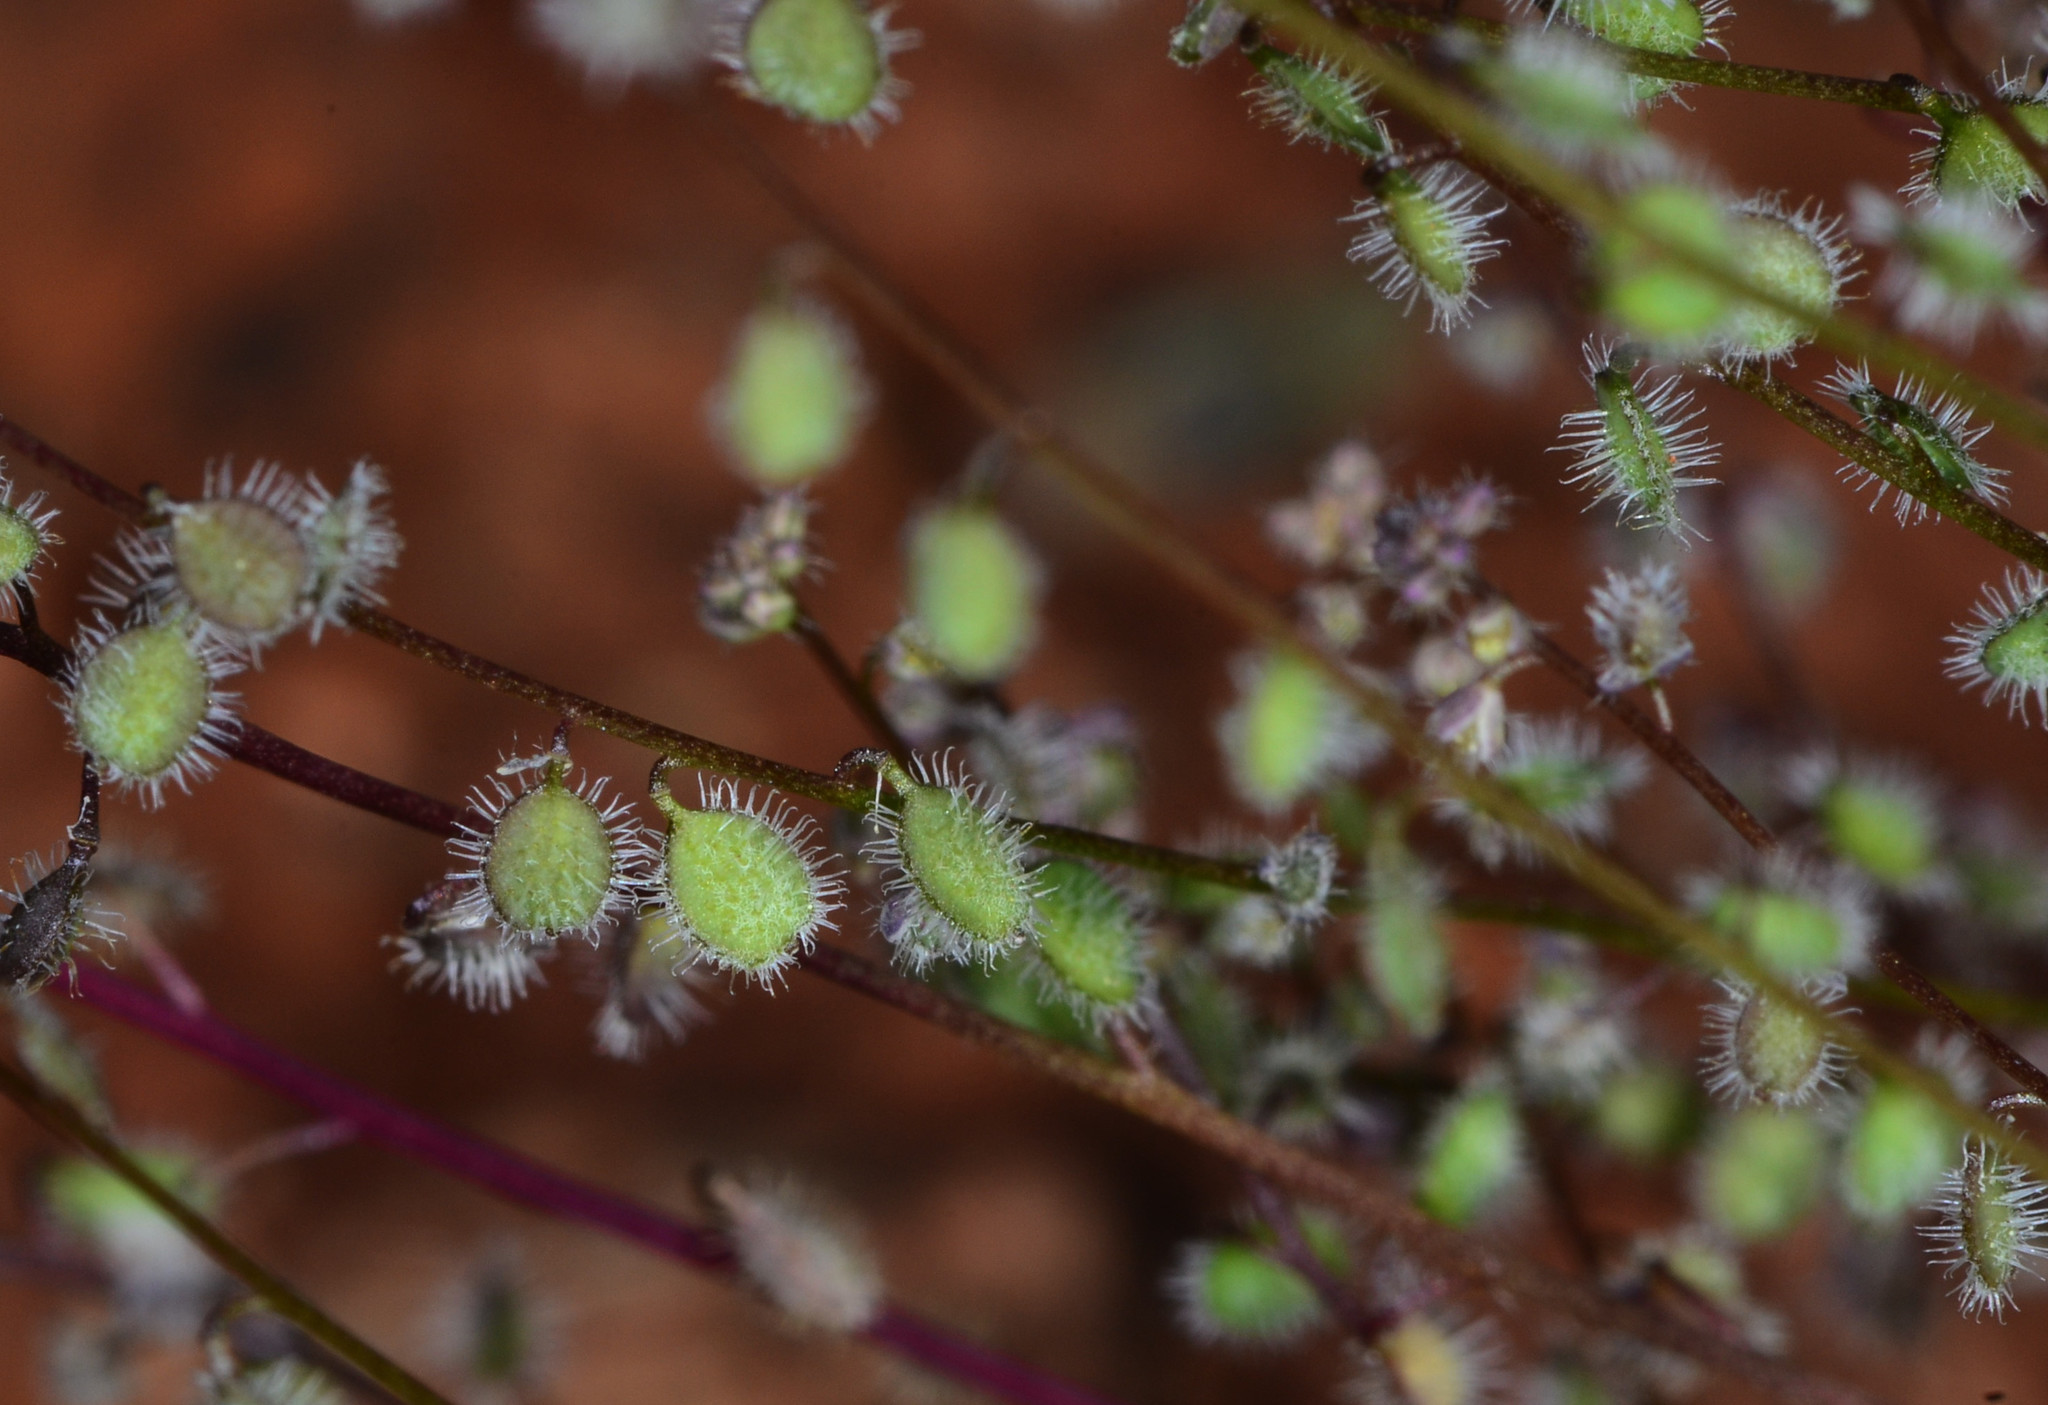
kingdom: Plantae
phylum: Tracheophyta
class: Magnoliopsida
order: Brassicales
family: Brassicaceae
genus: Athysanus
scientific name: Athysanus pusillus
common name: Common sandweed
